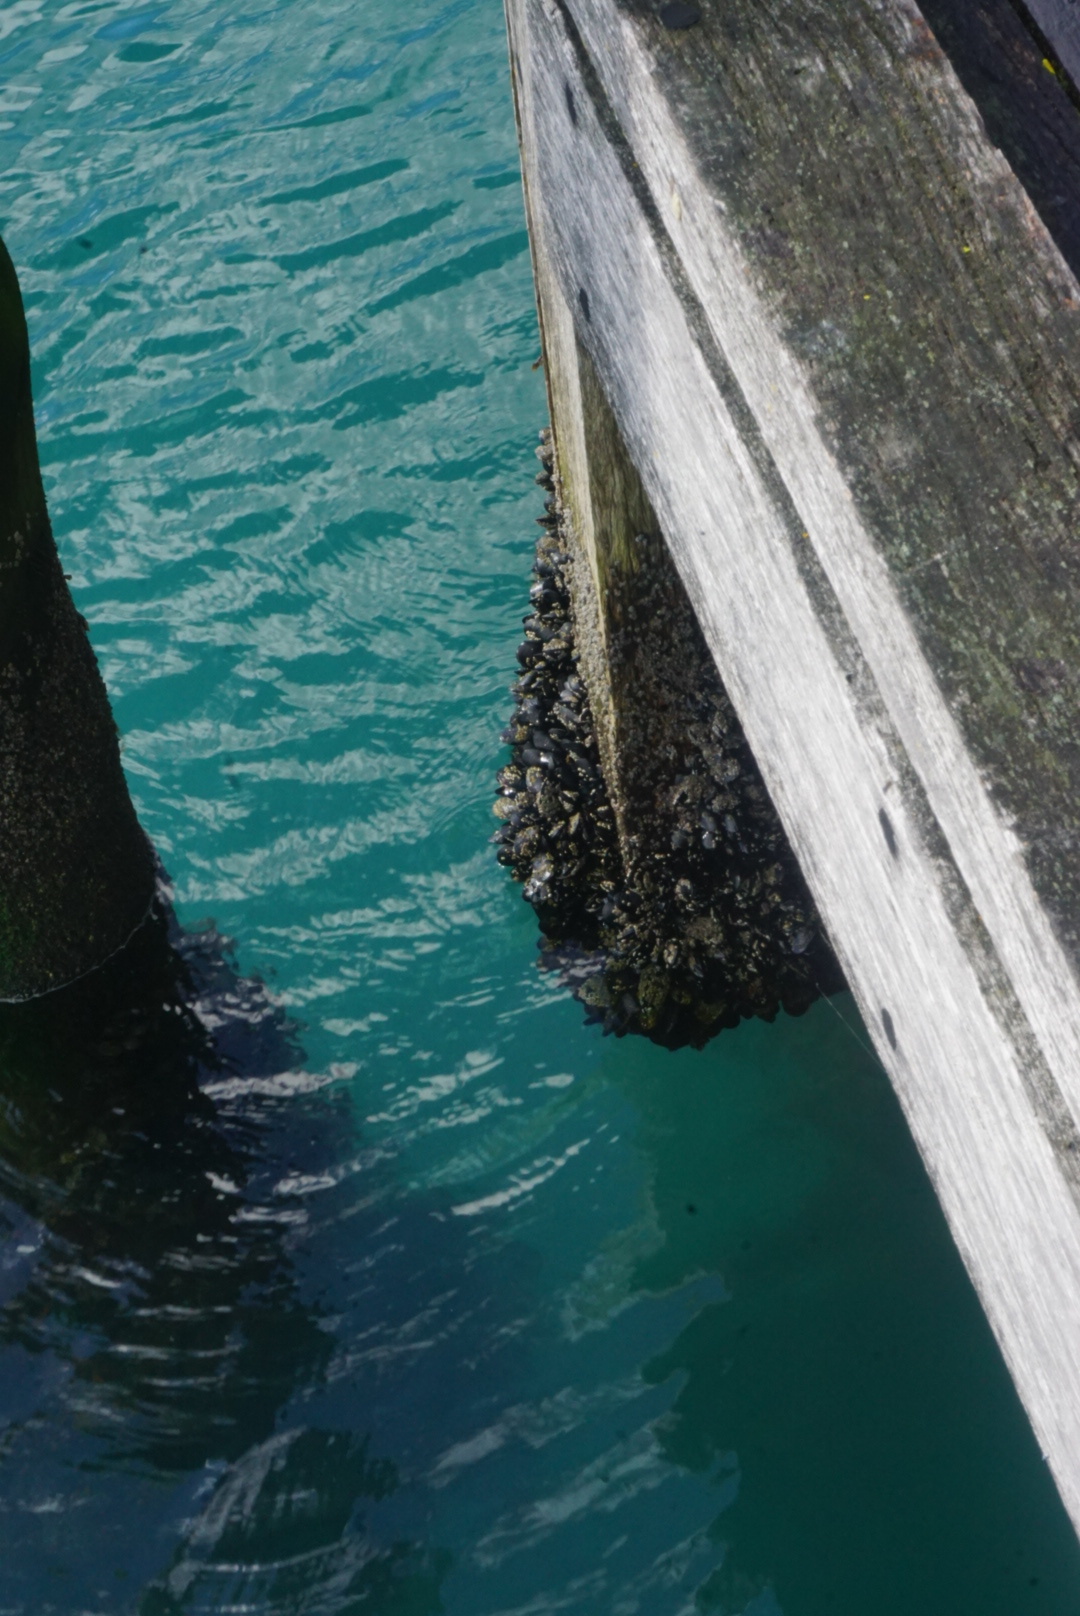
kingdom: Animalia
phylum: Mollusca
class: Bivalvia
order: Mytilida
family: Mytilidae
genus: Xenostrobus
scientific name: Xenostrobus neozelanicus
